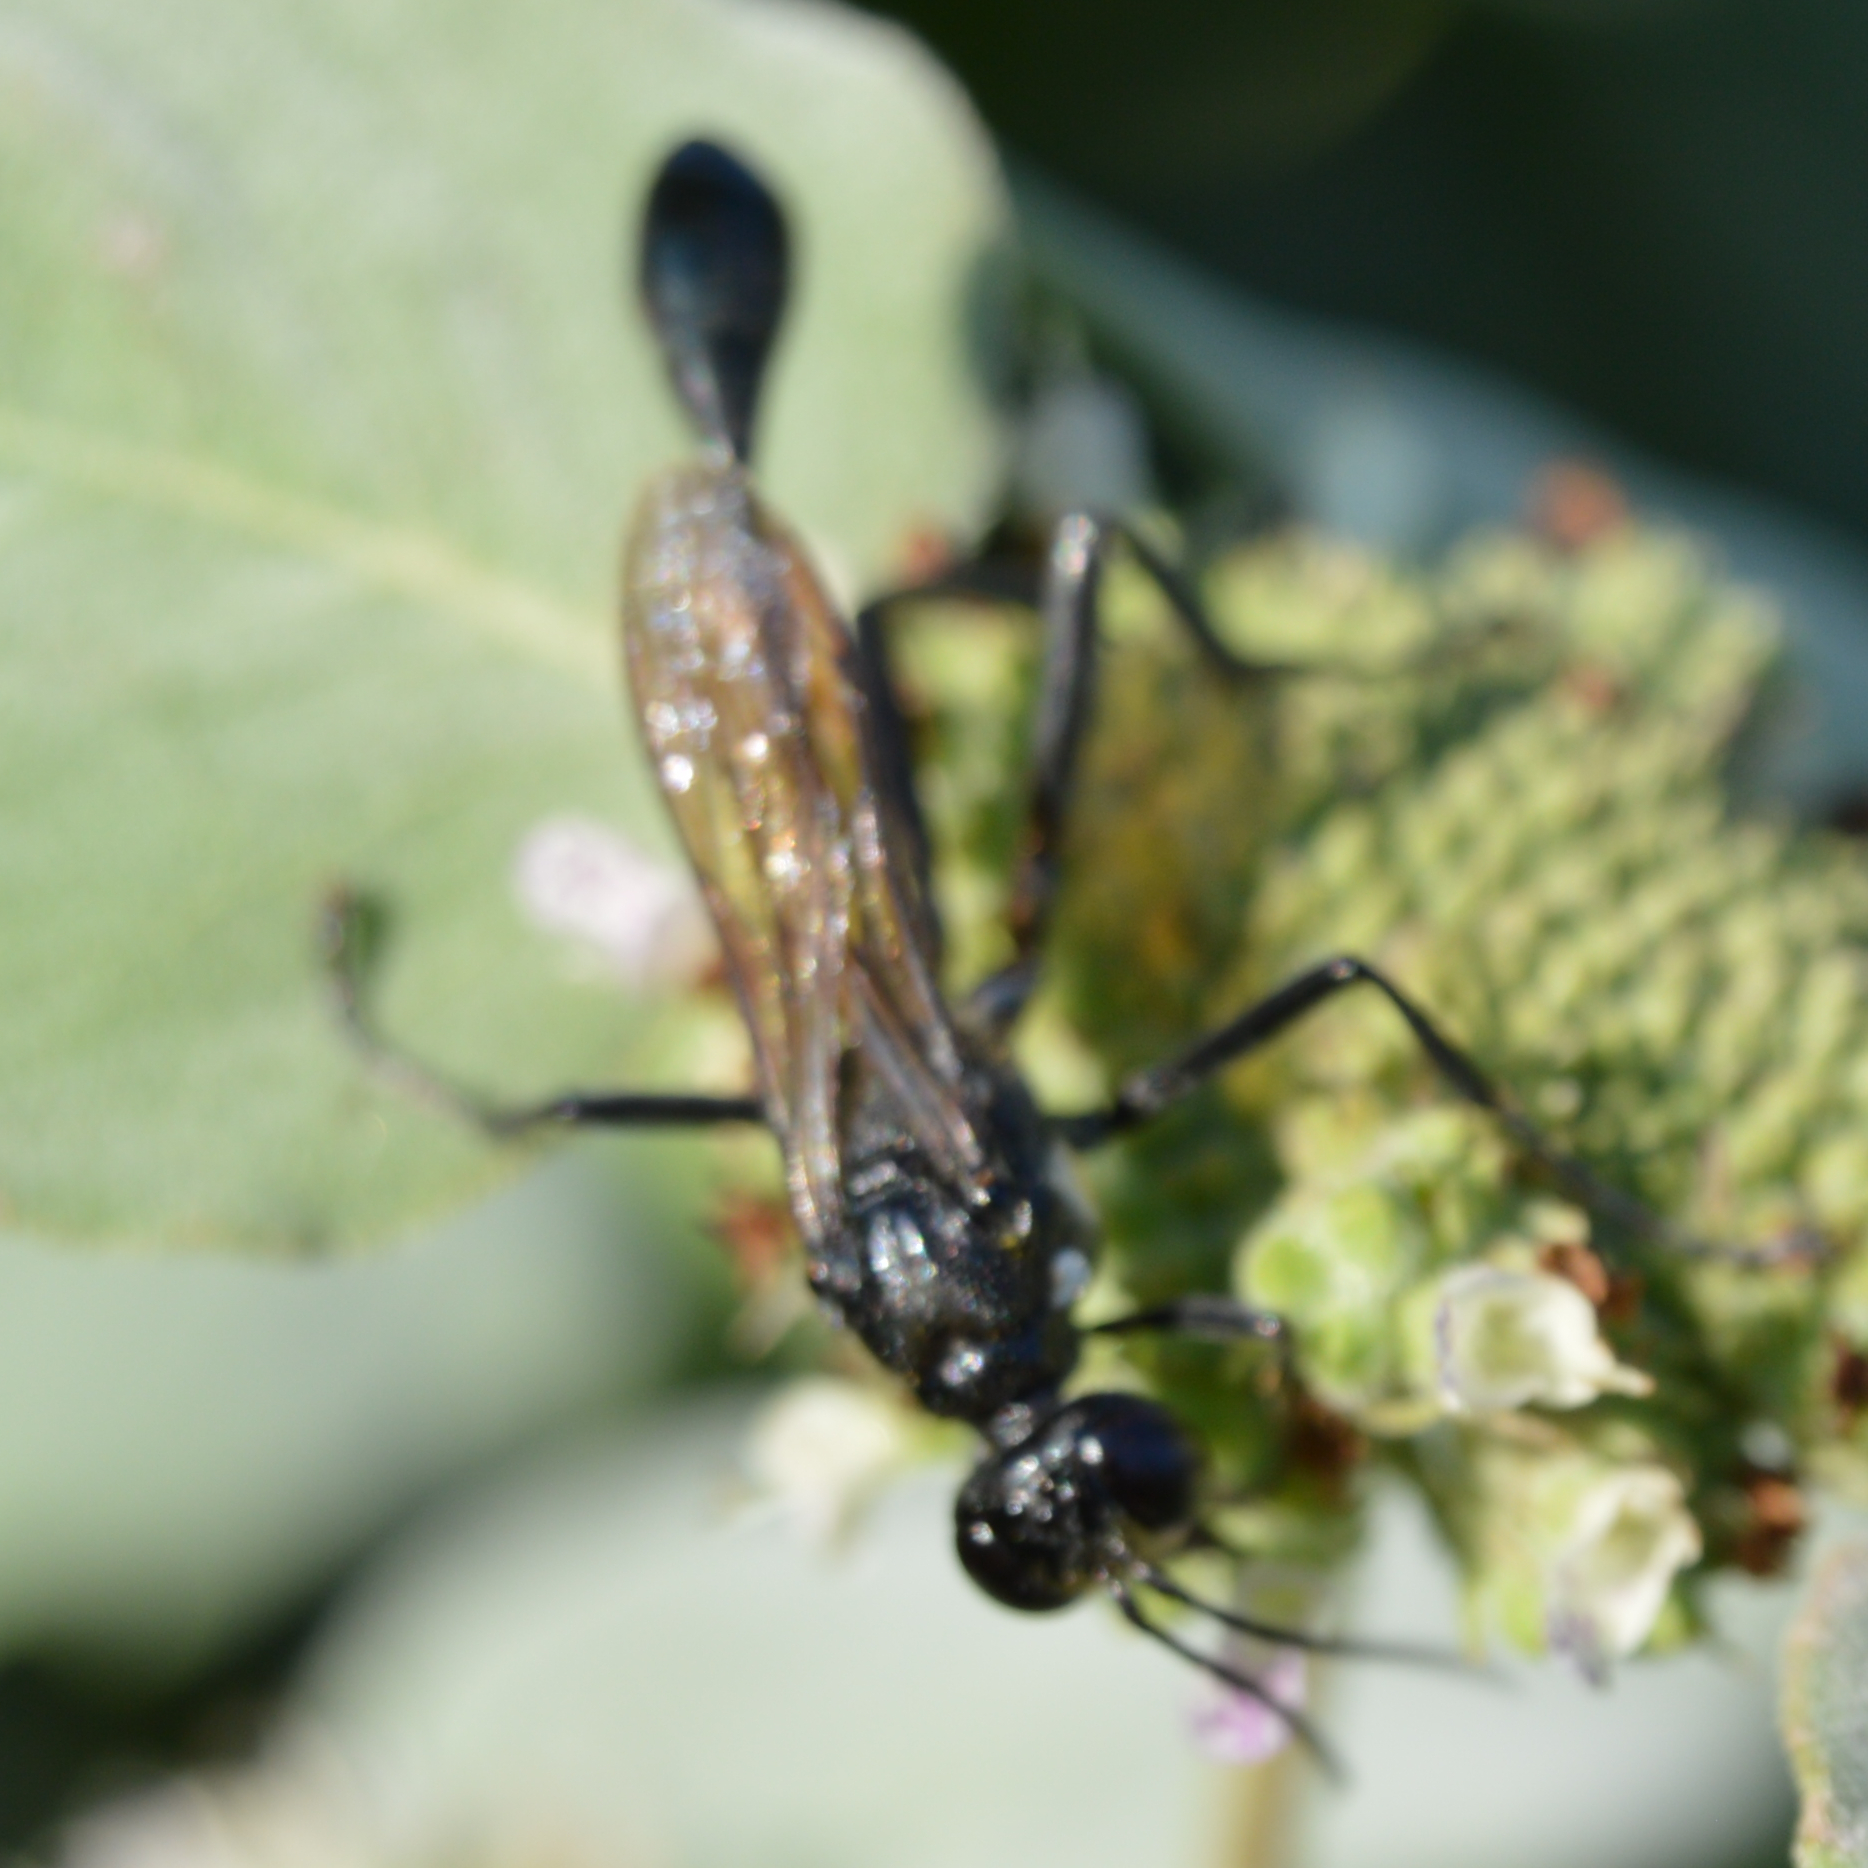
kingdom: Animalia
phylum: Arthropoda
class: Insecta
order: Hymenoptera
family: Sphecidae
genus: Eremnophila
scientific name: Eremnophila aureonotata
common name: Gold-marked thread-waisted wasp
